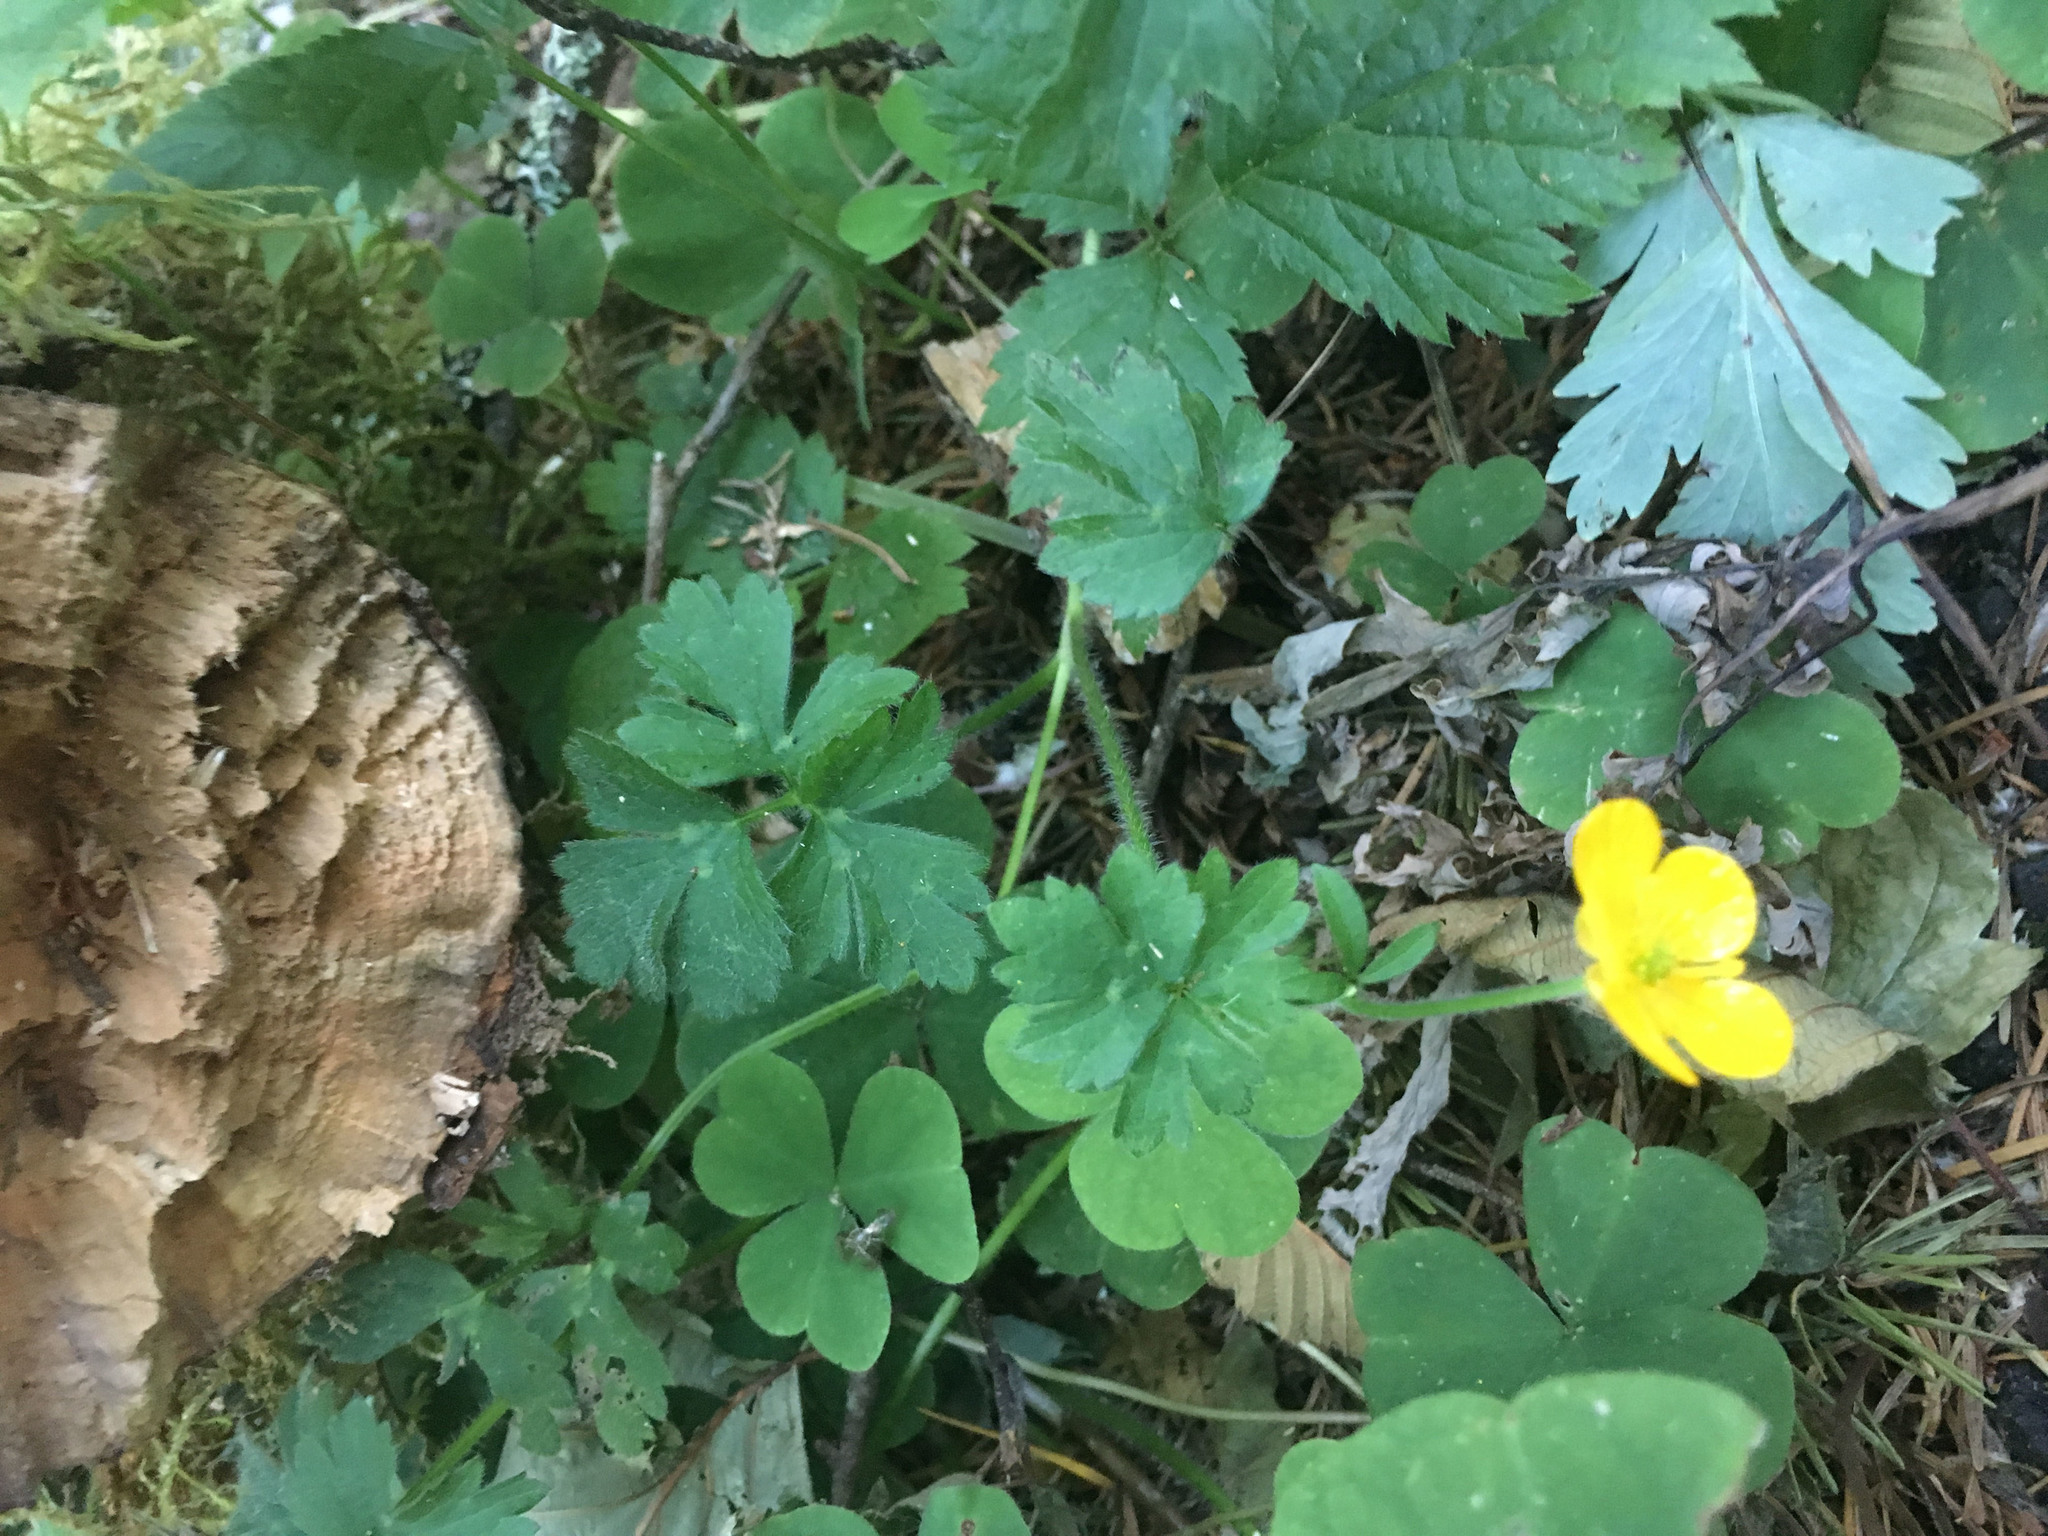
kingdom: Plantae
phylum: Tracheophyta
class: Magnoliopsida
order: Ranunculales
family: Ranunculaceae
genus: Ranunculus
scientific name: Ranunculus repens
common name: Creeping buttercup
